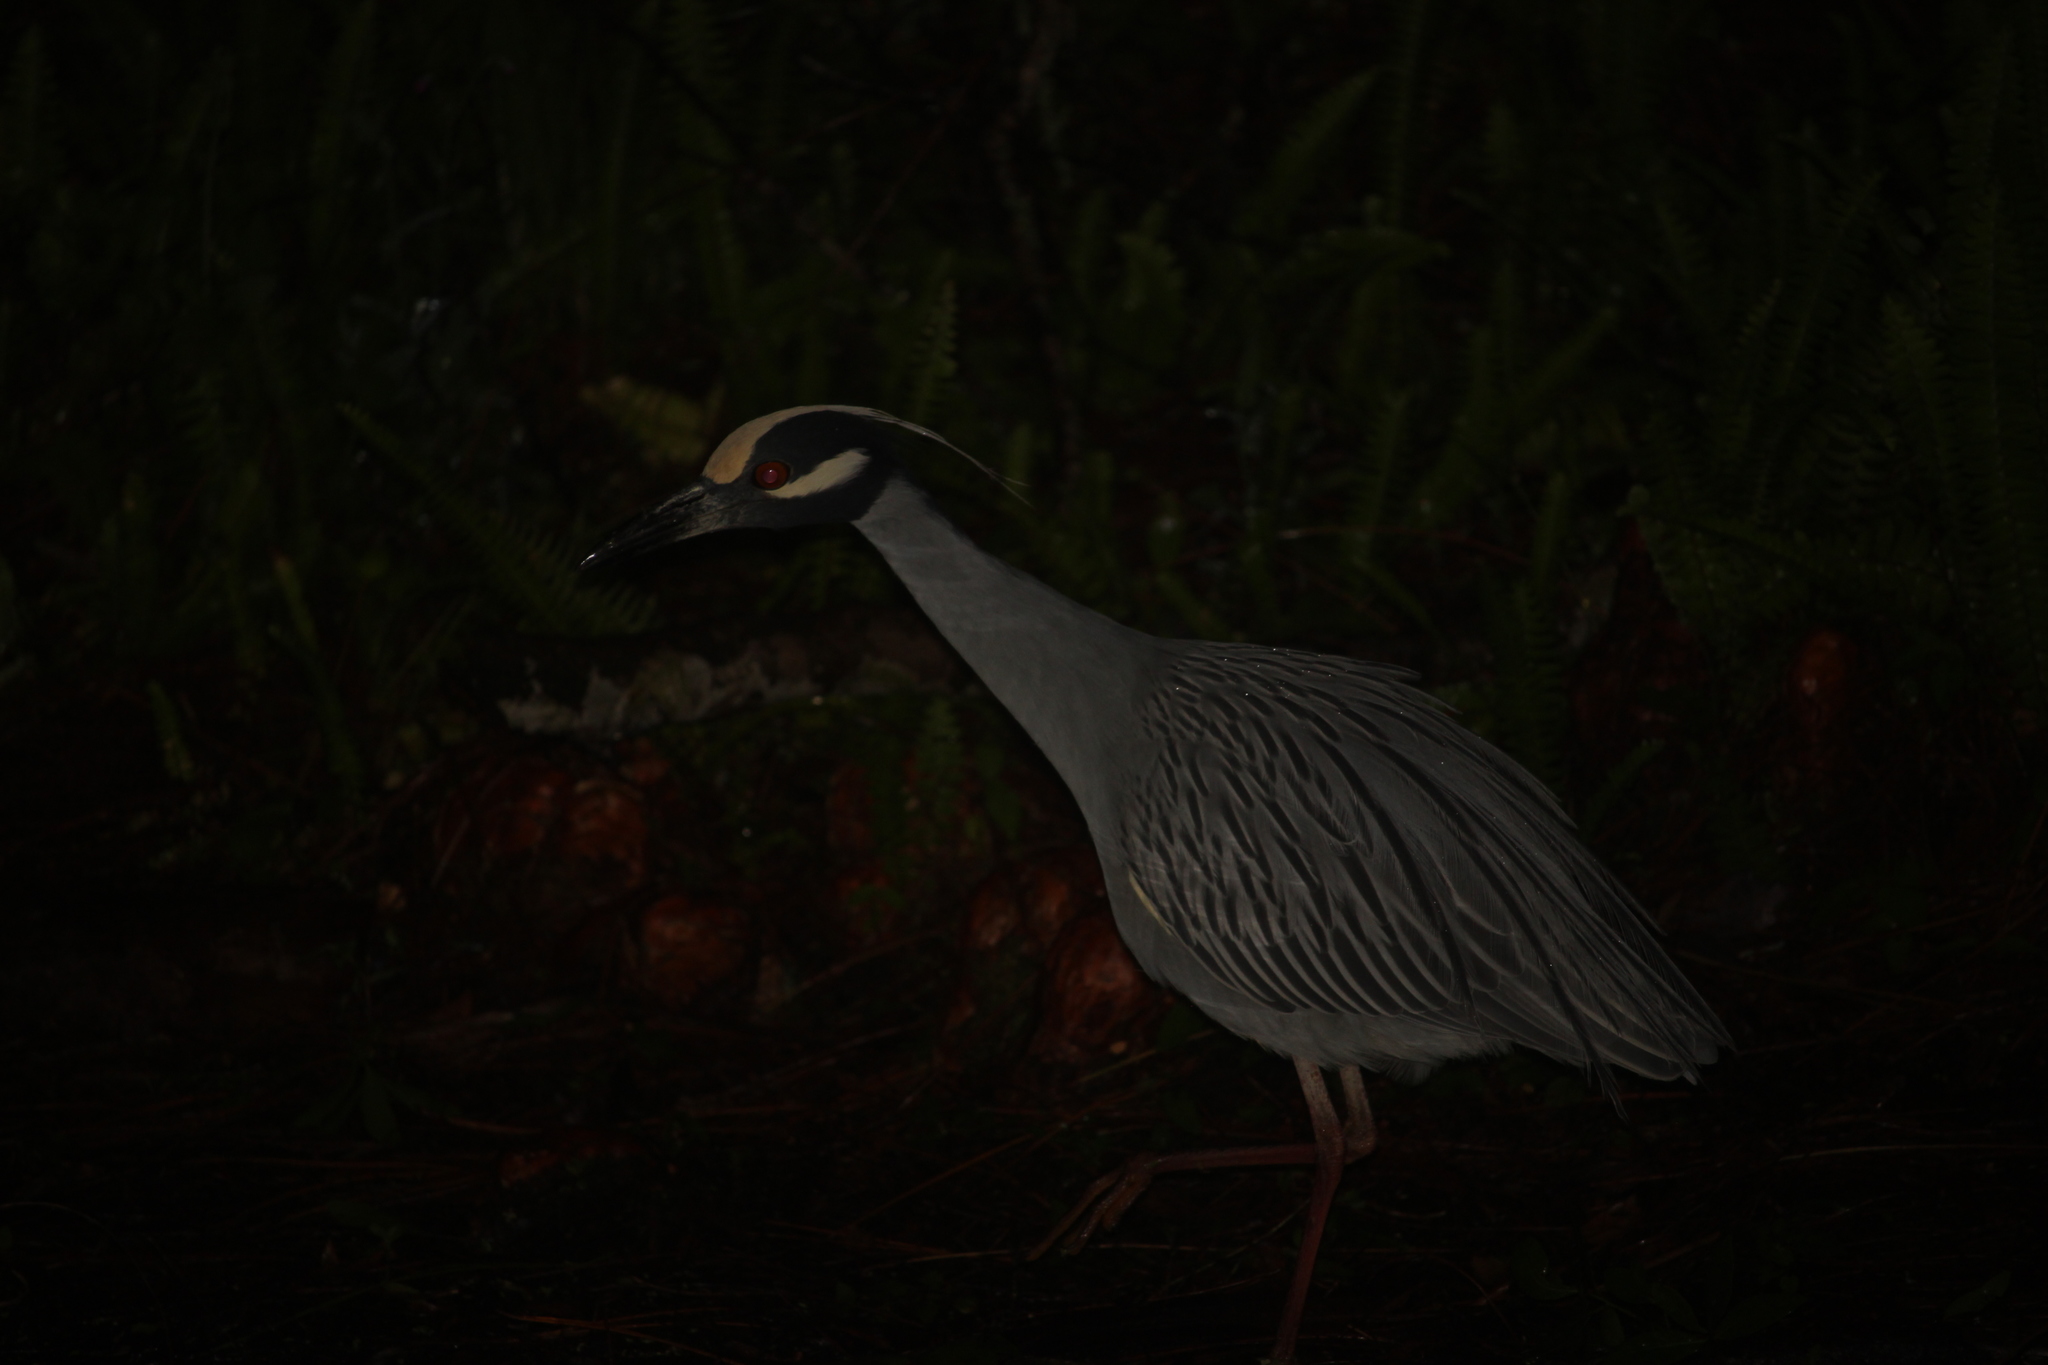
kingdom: Animalia
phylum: Chordata
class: Aves
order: Pelecaniformes
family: Ardeidae
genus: Nyctanassa
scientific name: Nyctanassa violacea
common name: Yellow-crowned night heron
